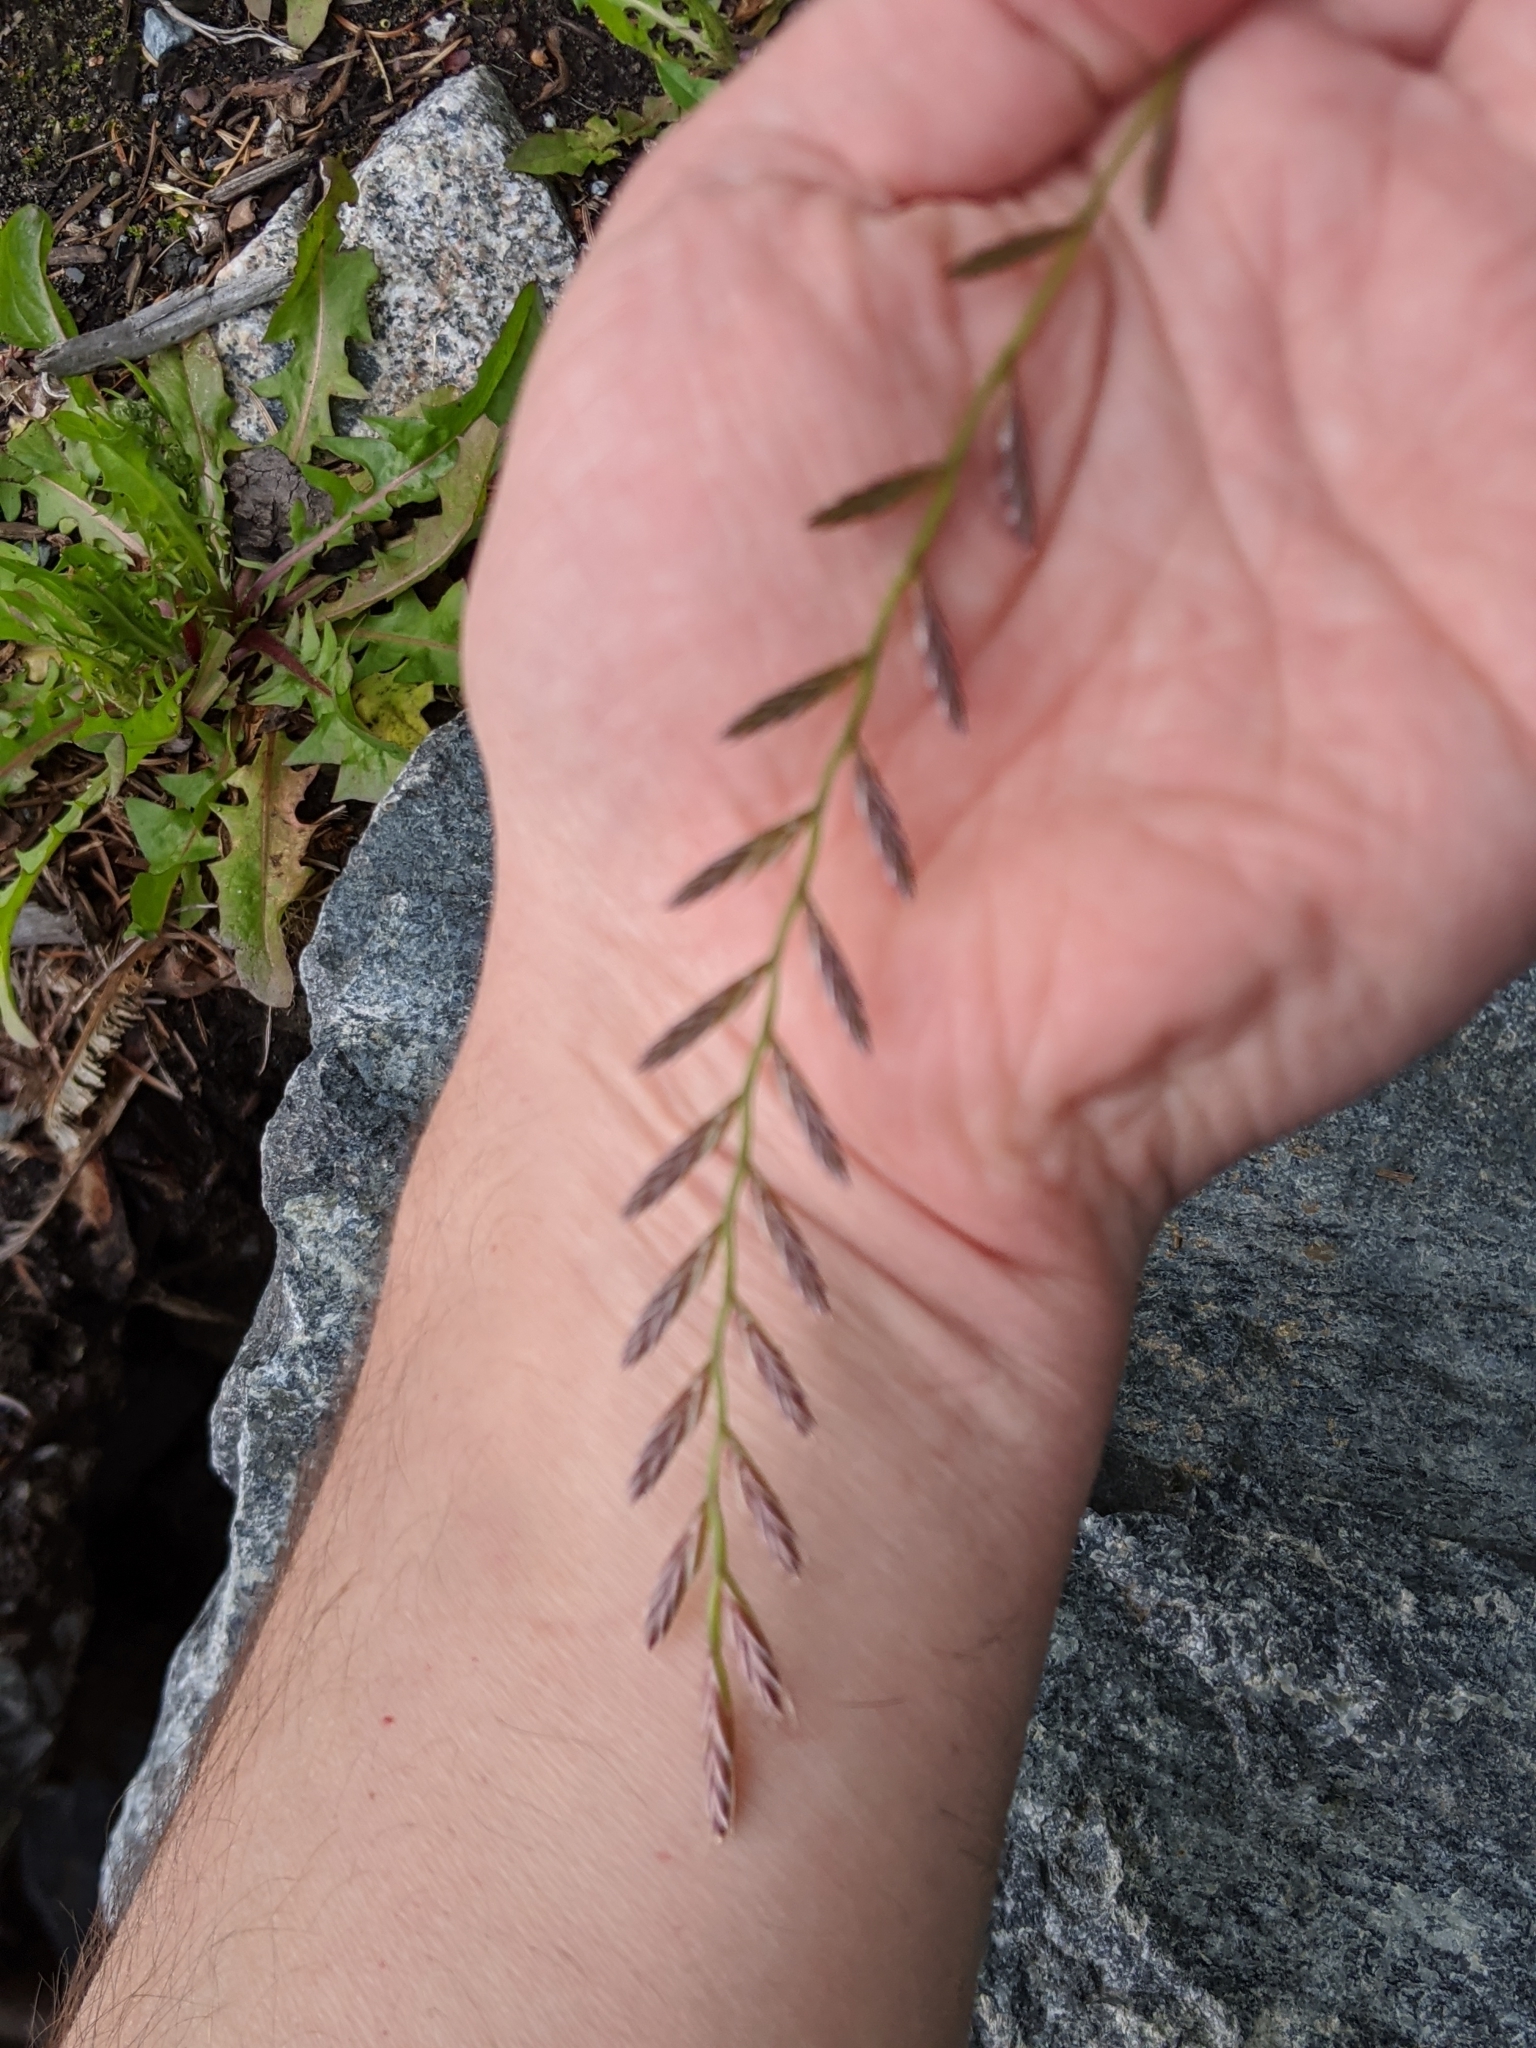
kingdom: Plantae
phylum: Tracheophyta
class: Liliopsida
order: Poales
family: Poaceae
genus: Lolium
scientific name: Lolium perenne
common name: Perennial ryegrass
